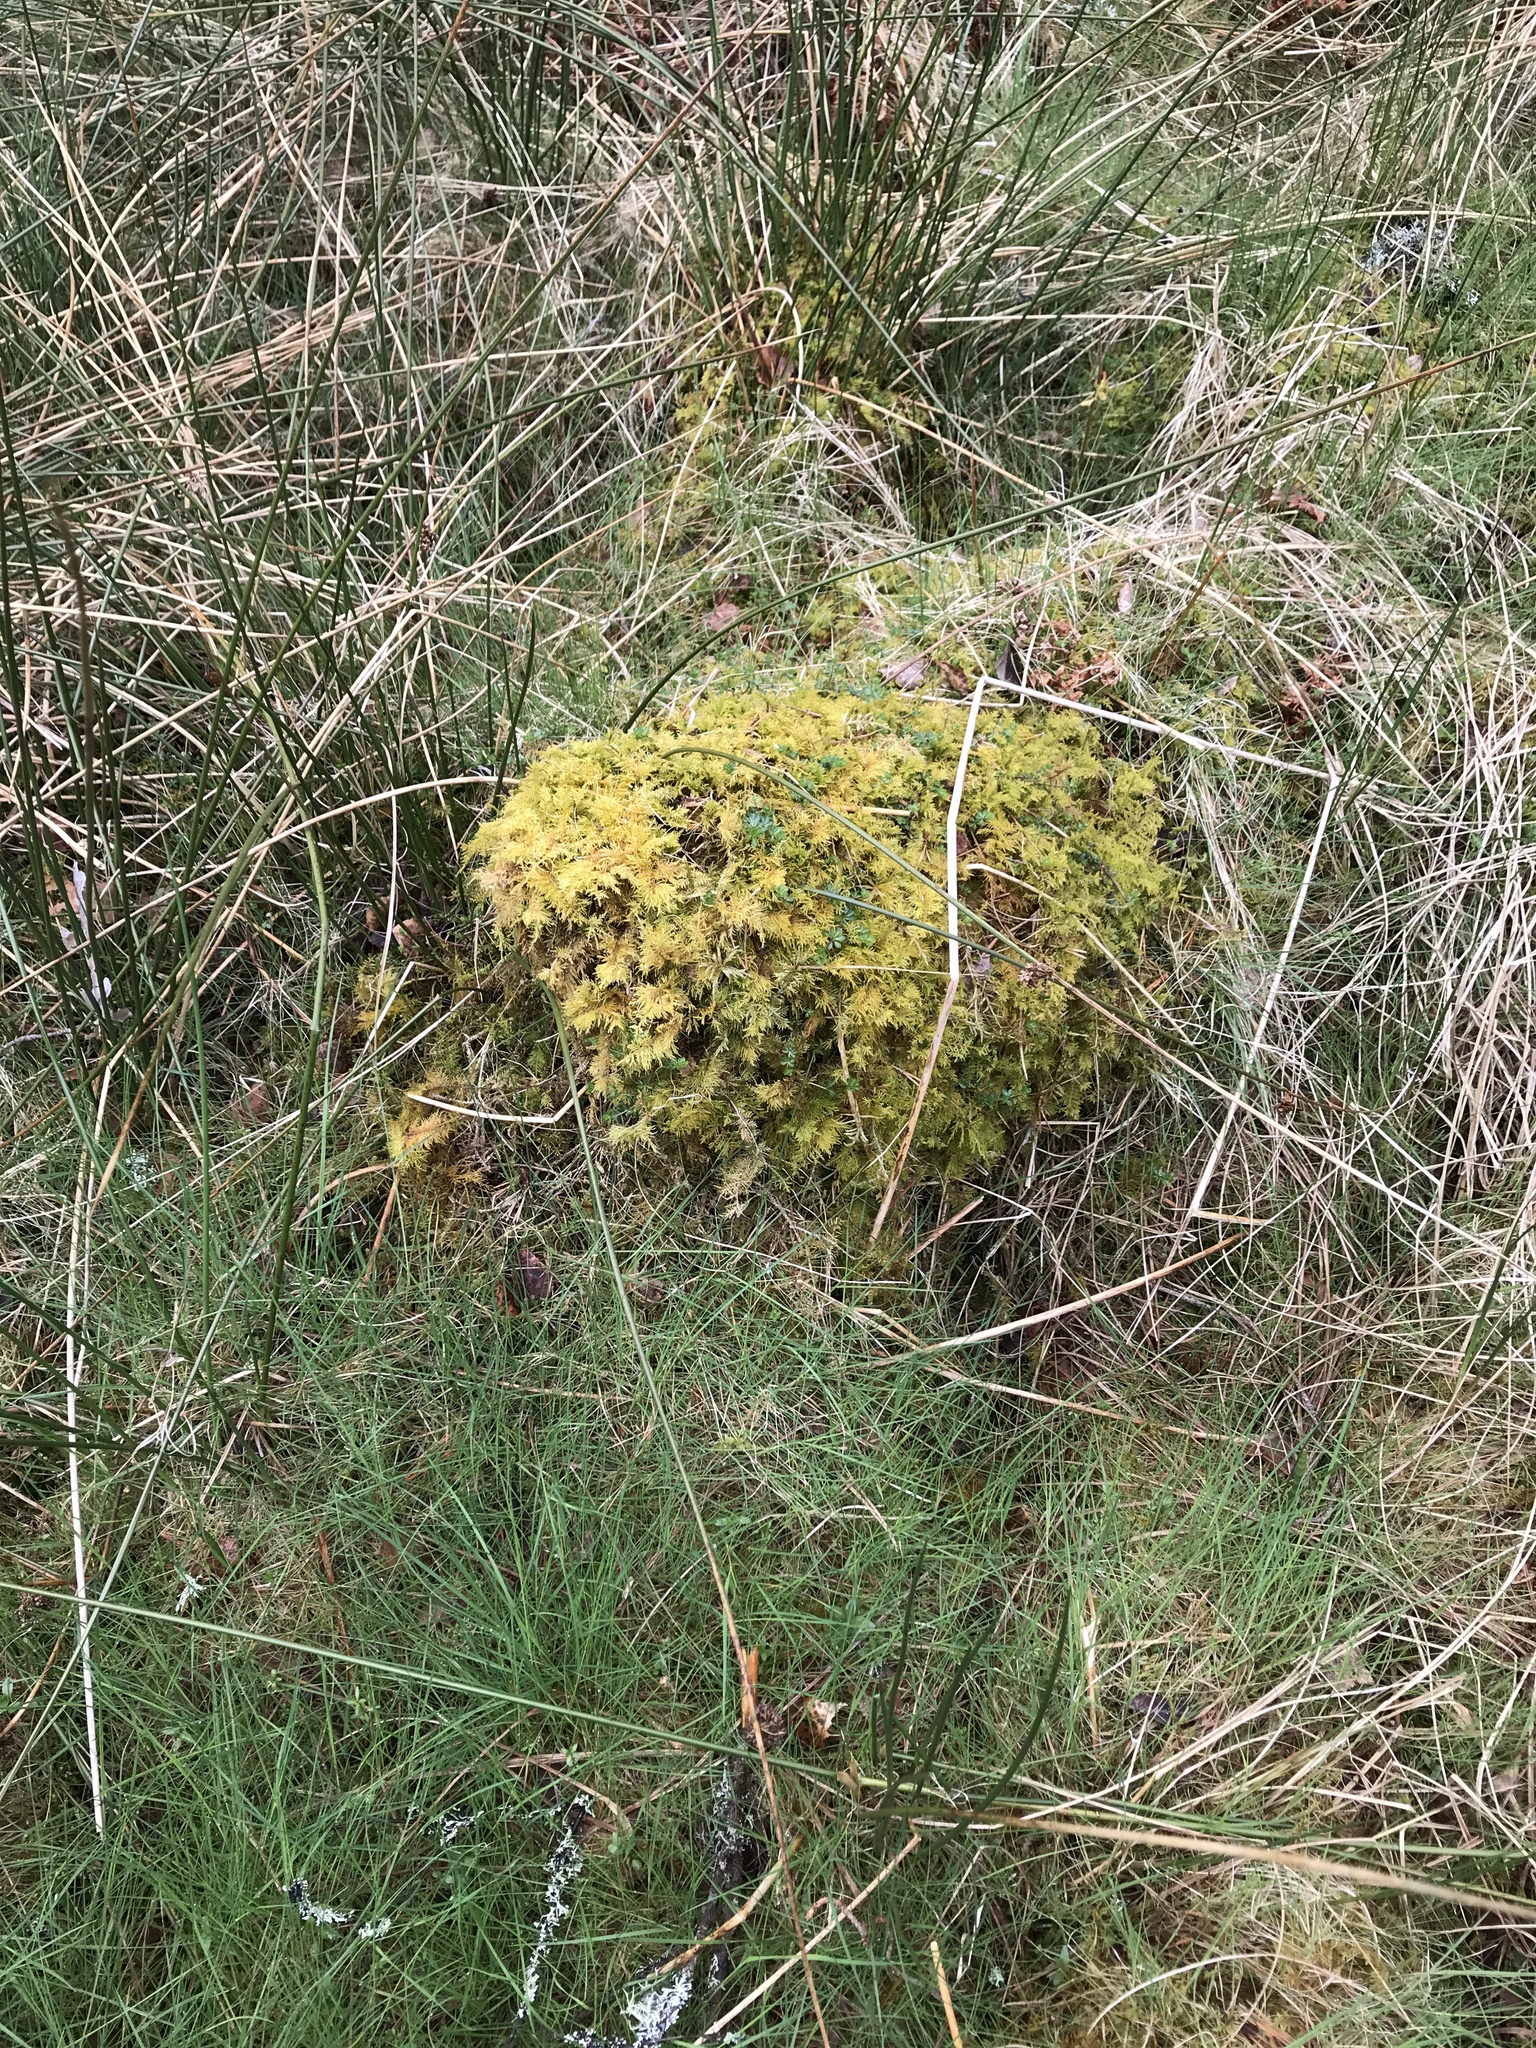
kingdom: Plantae
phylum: Bryophyta
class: Bryopsida
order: Hypnales
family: Thuidiaceae
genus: Thuidium
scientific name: Thuidium tamariscinum
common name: Common tamarisk-moss
